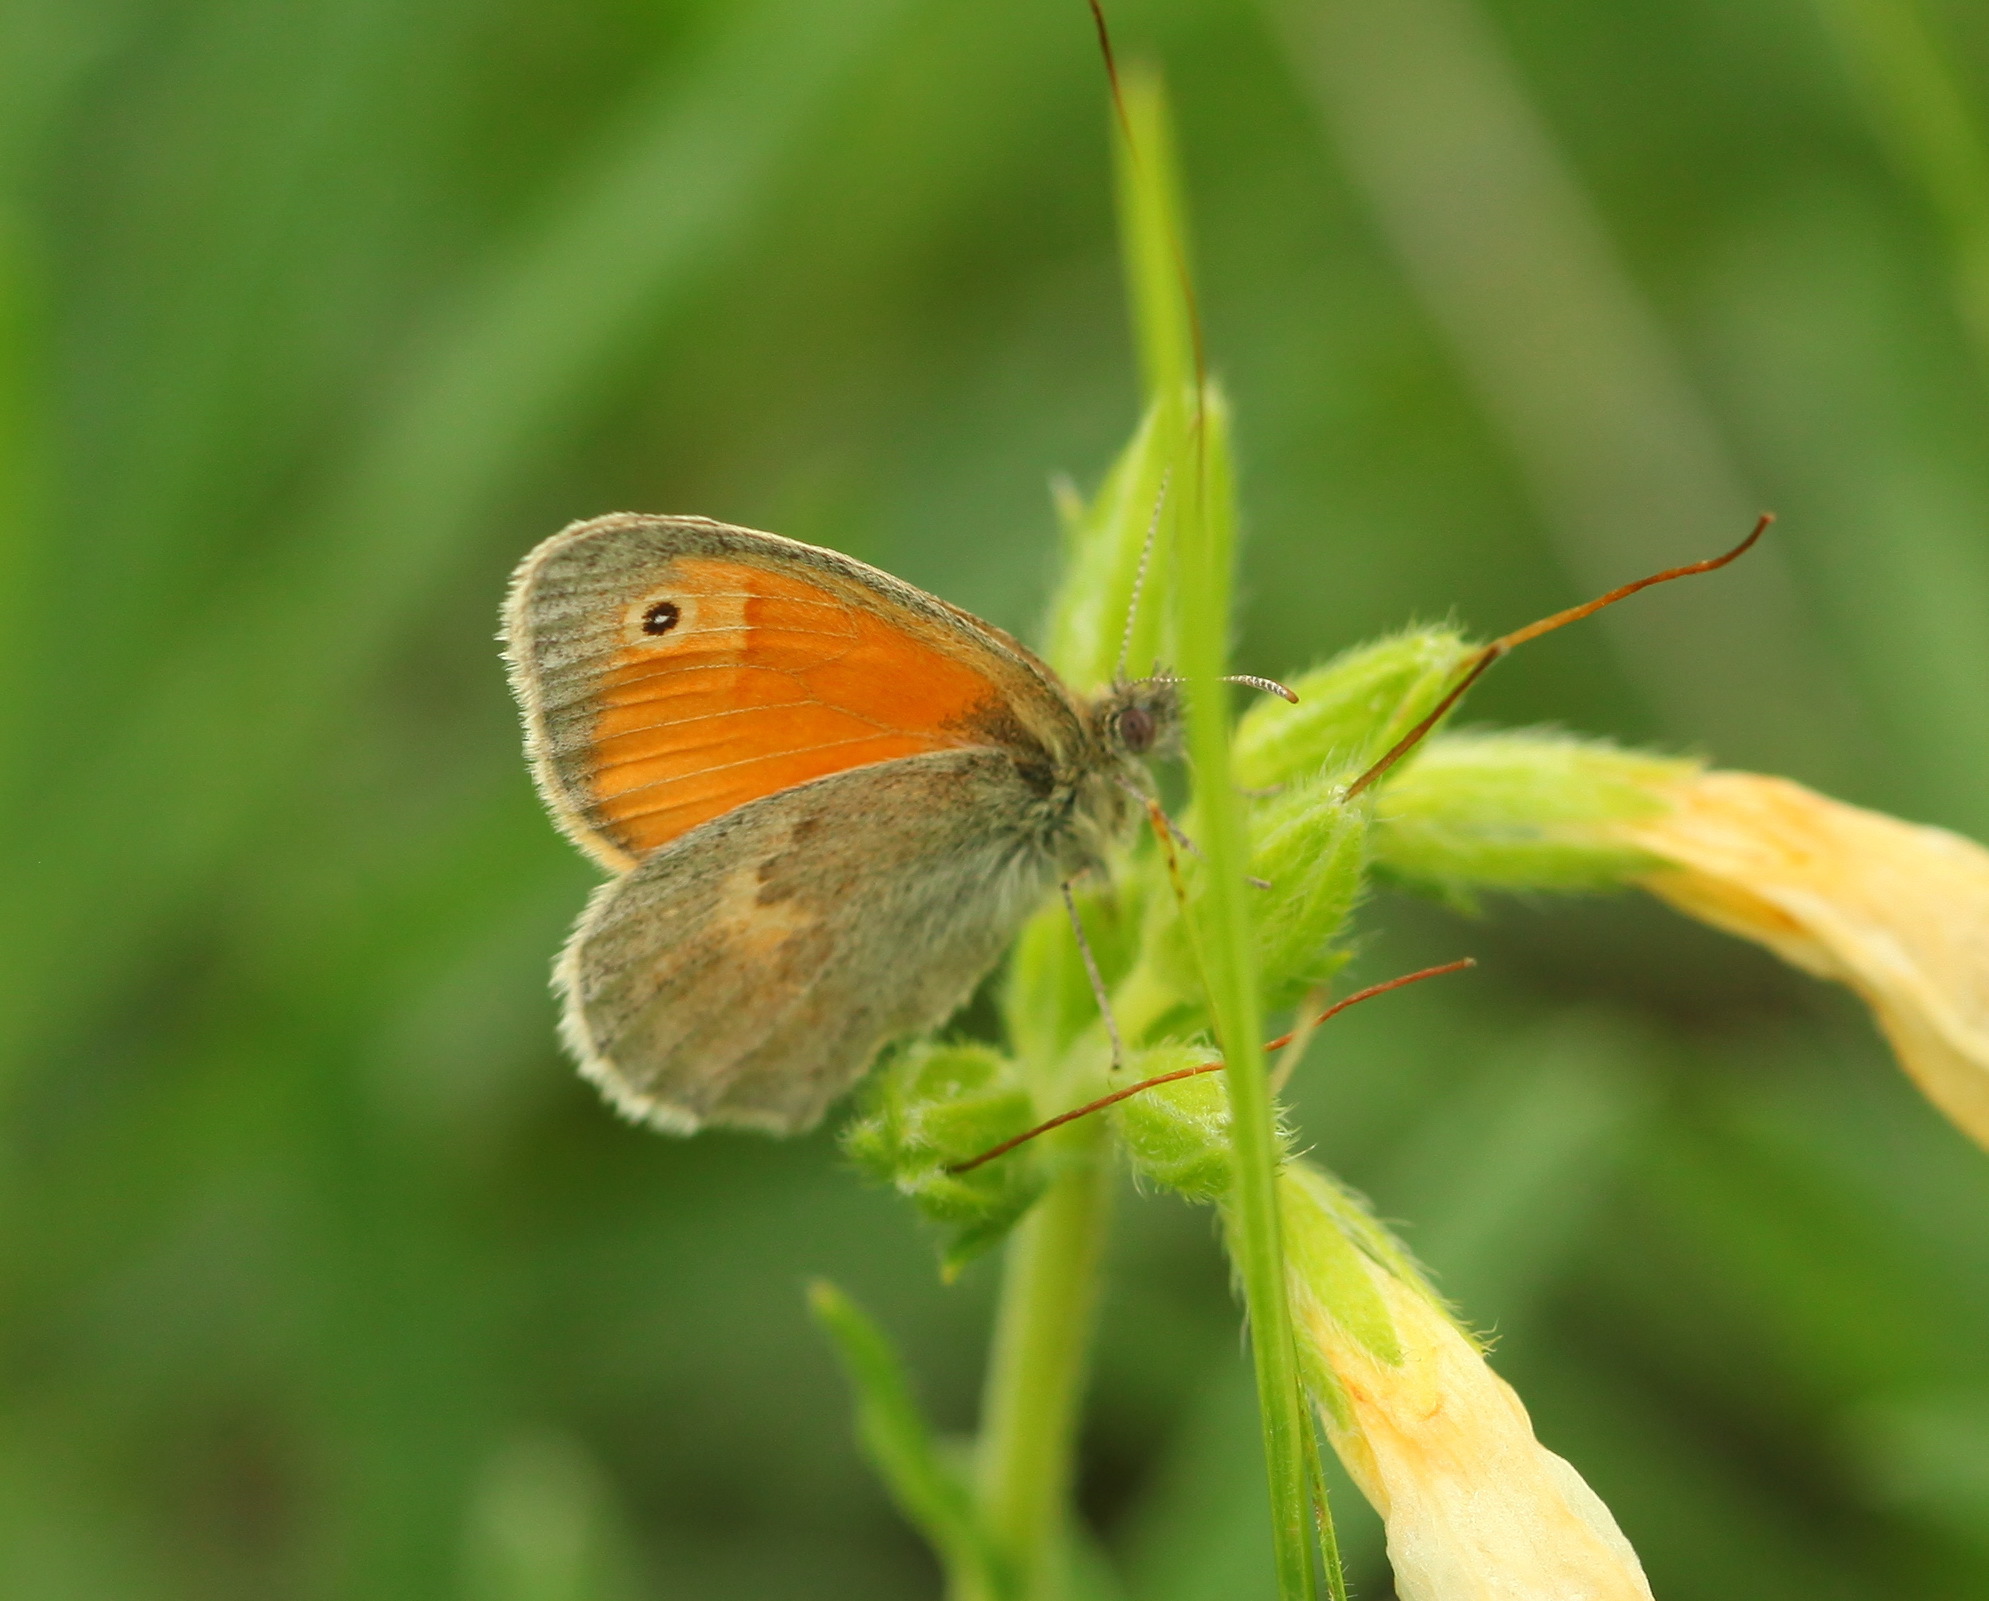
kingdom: Animalia
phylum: Arthropoda
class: Insecta
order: Lepidoptera
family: Nymphalidae
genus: Coenonympha
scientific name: Coenonympha pamphilus
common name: Small heath
